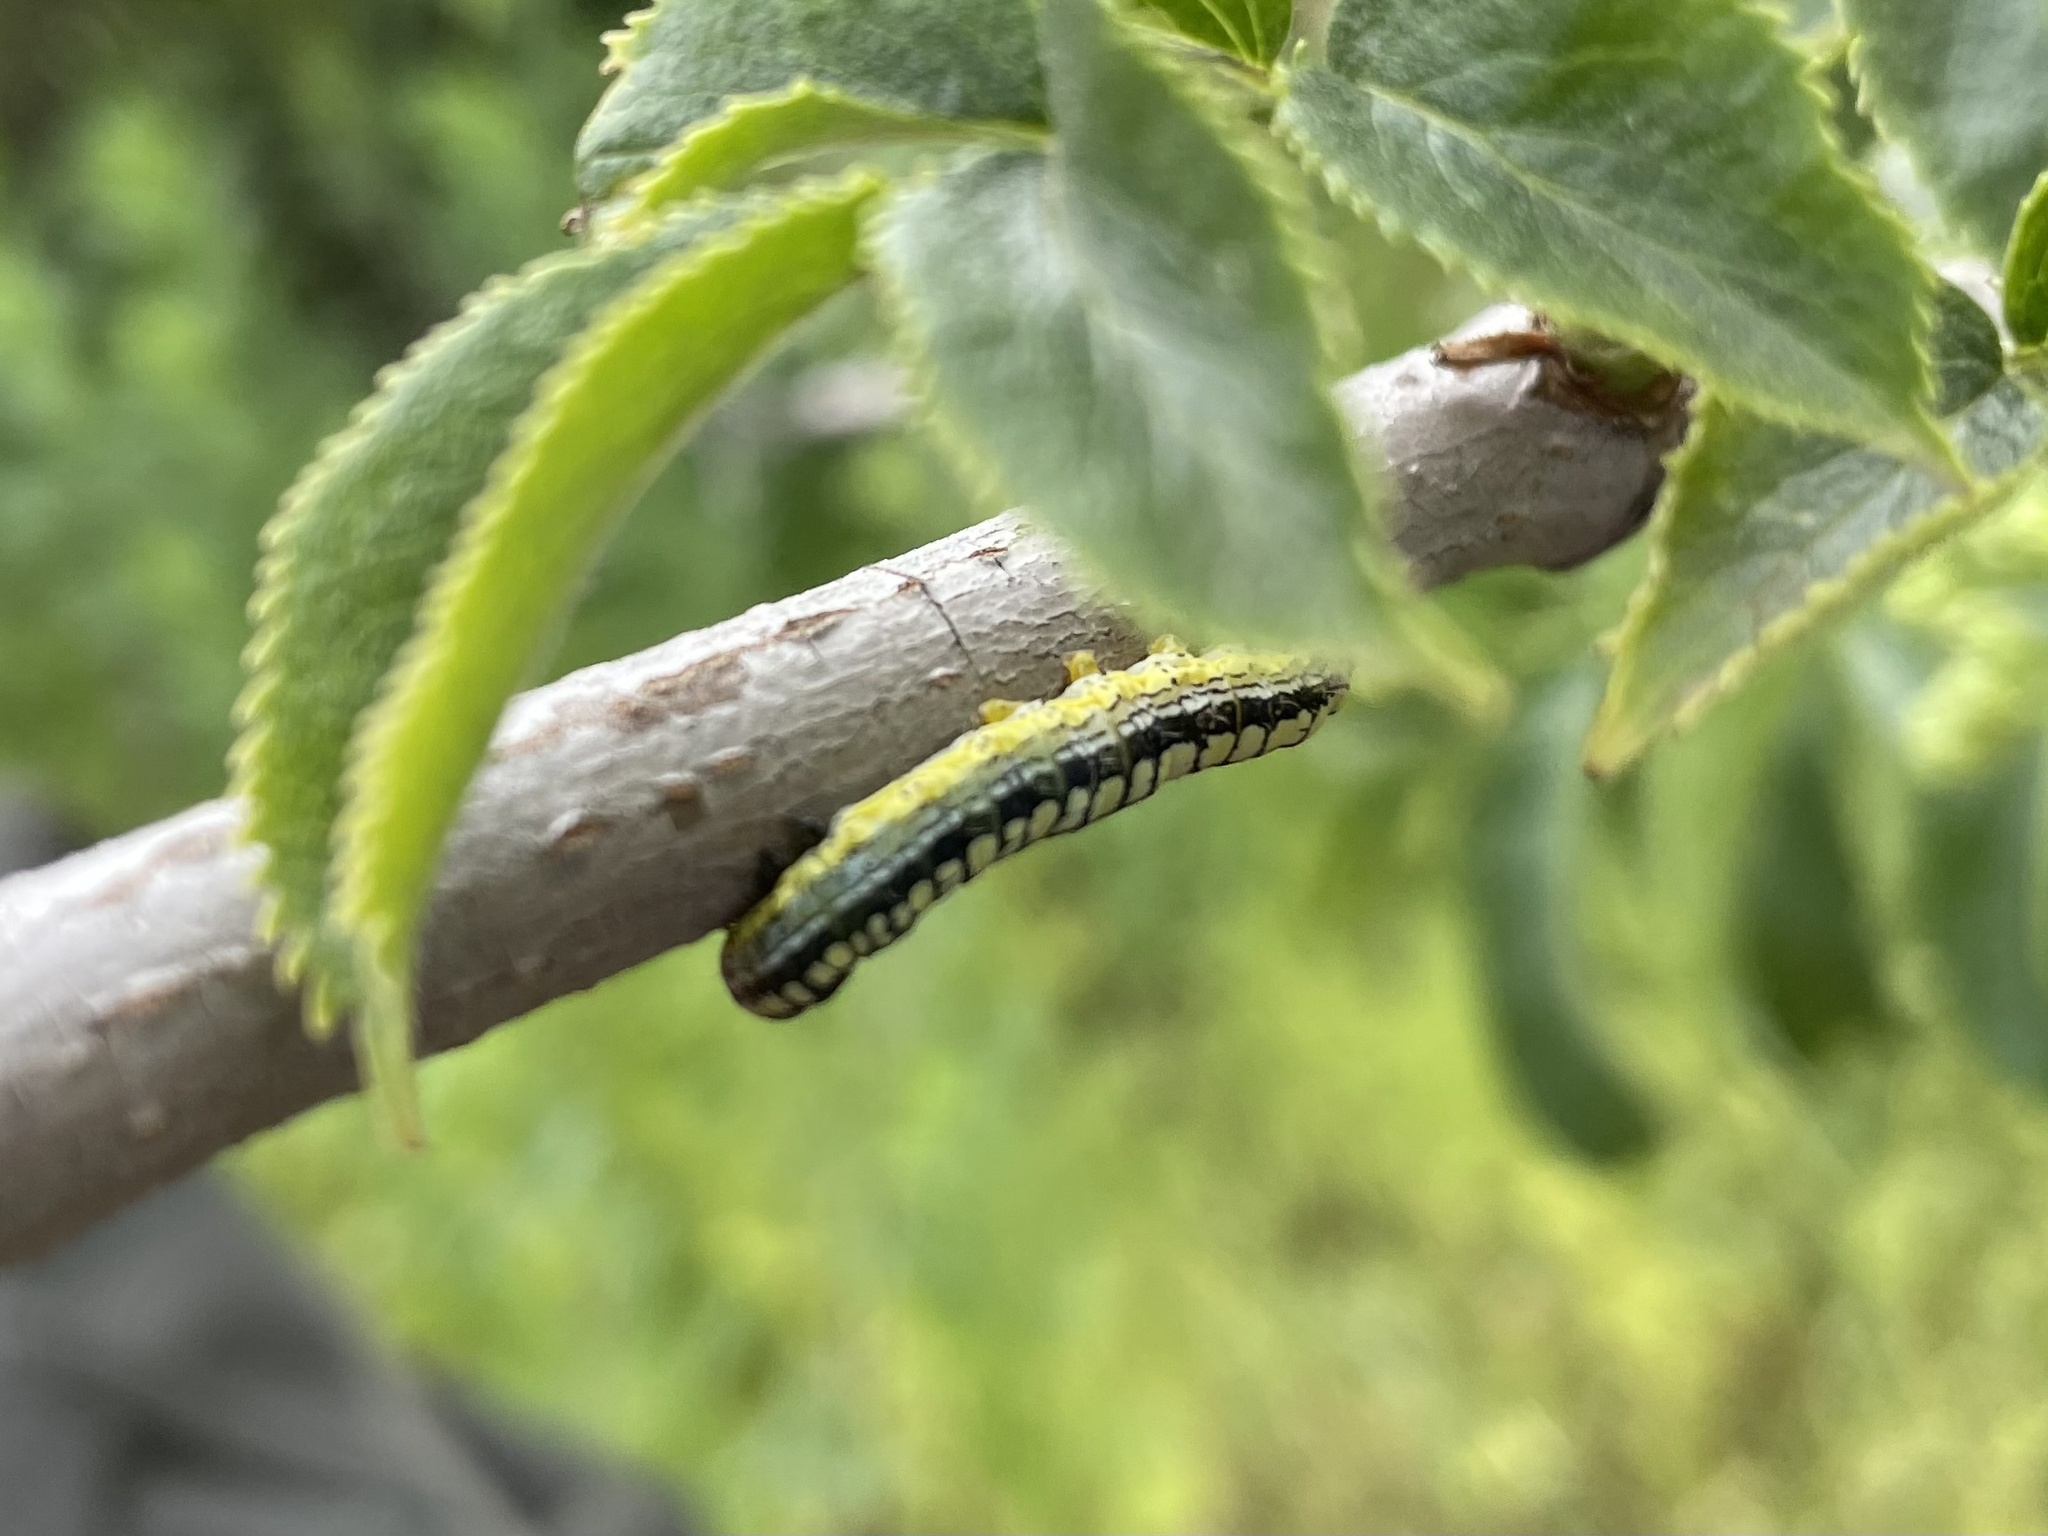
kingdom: Animalia
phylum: Arthropoda
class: Insecta
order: Lepidoptera
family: Noctuidae
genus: Zotheca
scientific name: Zotheca tranquilla
